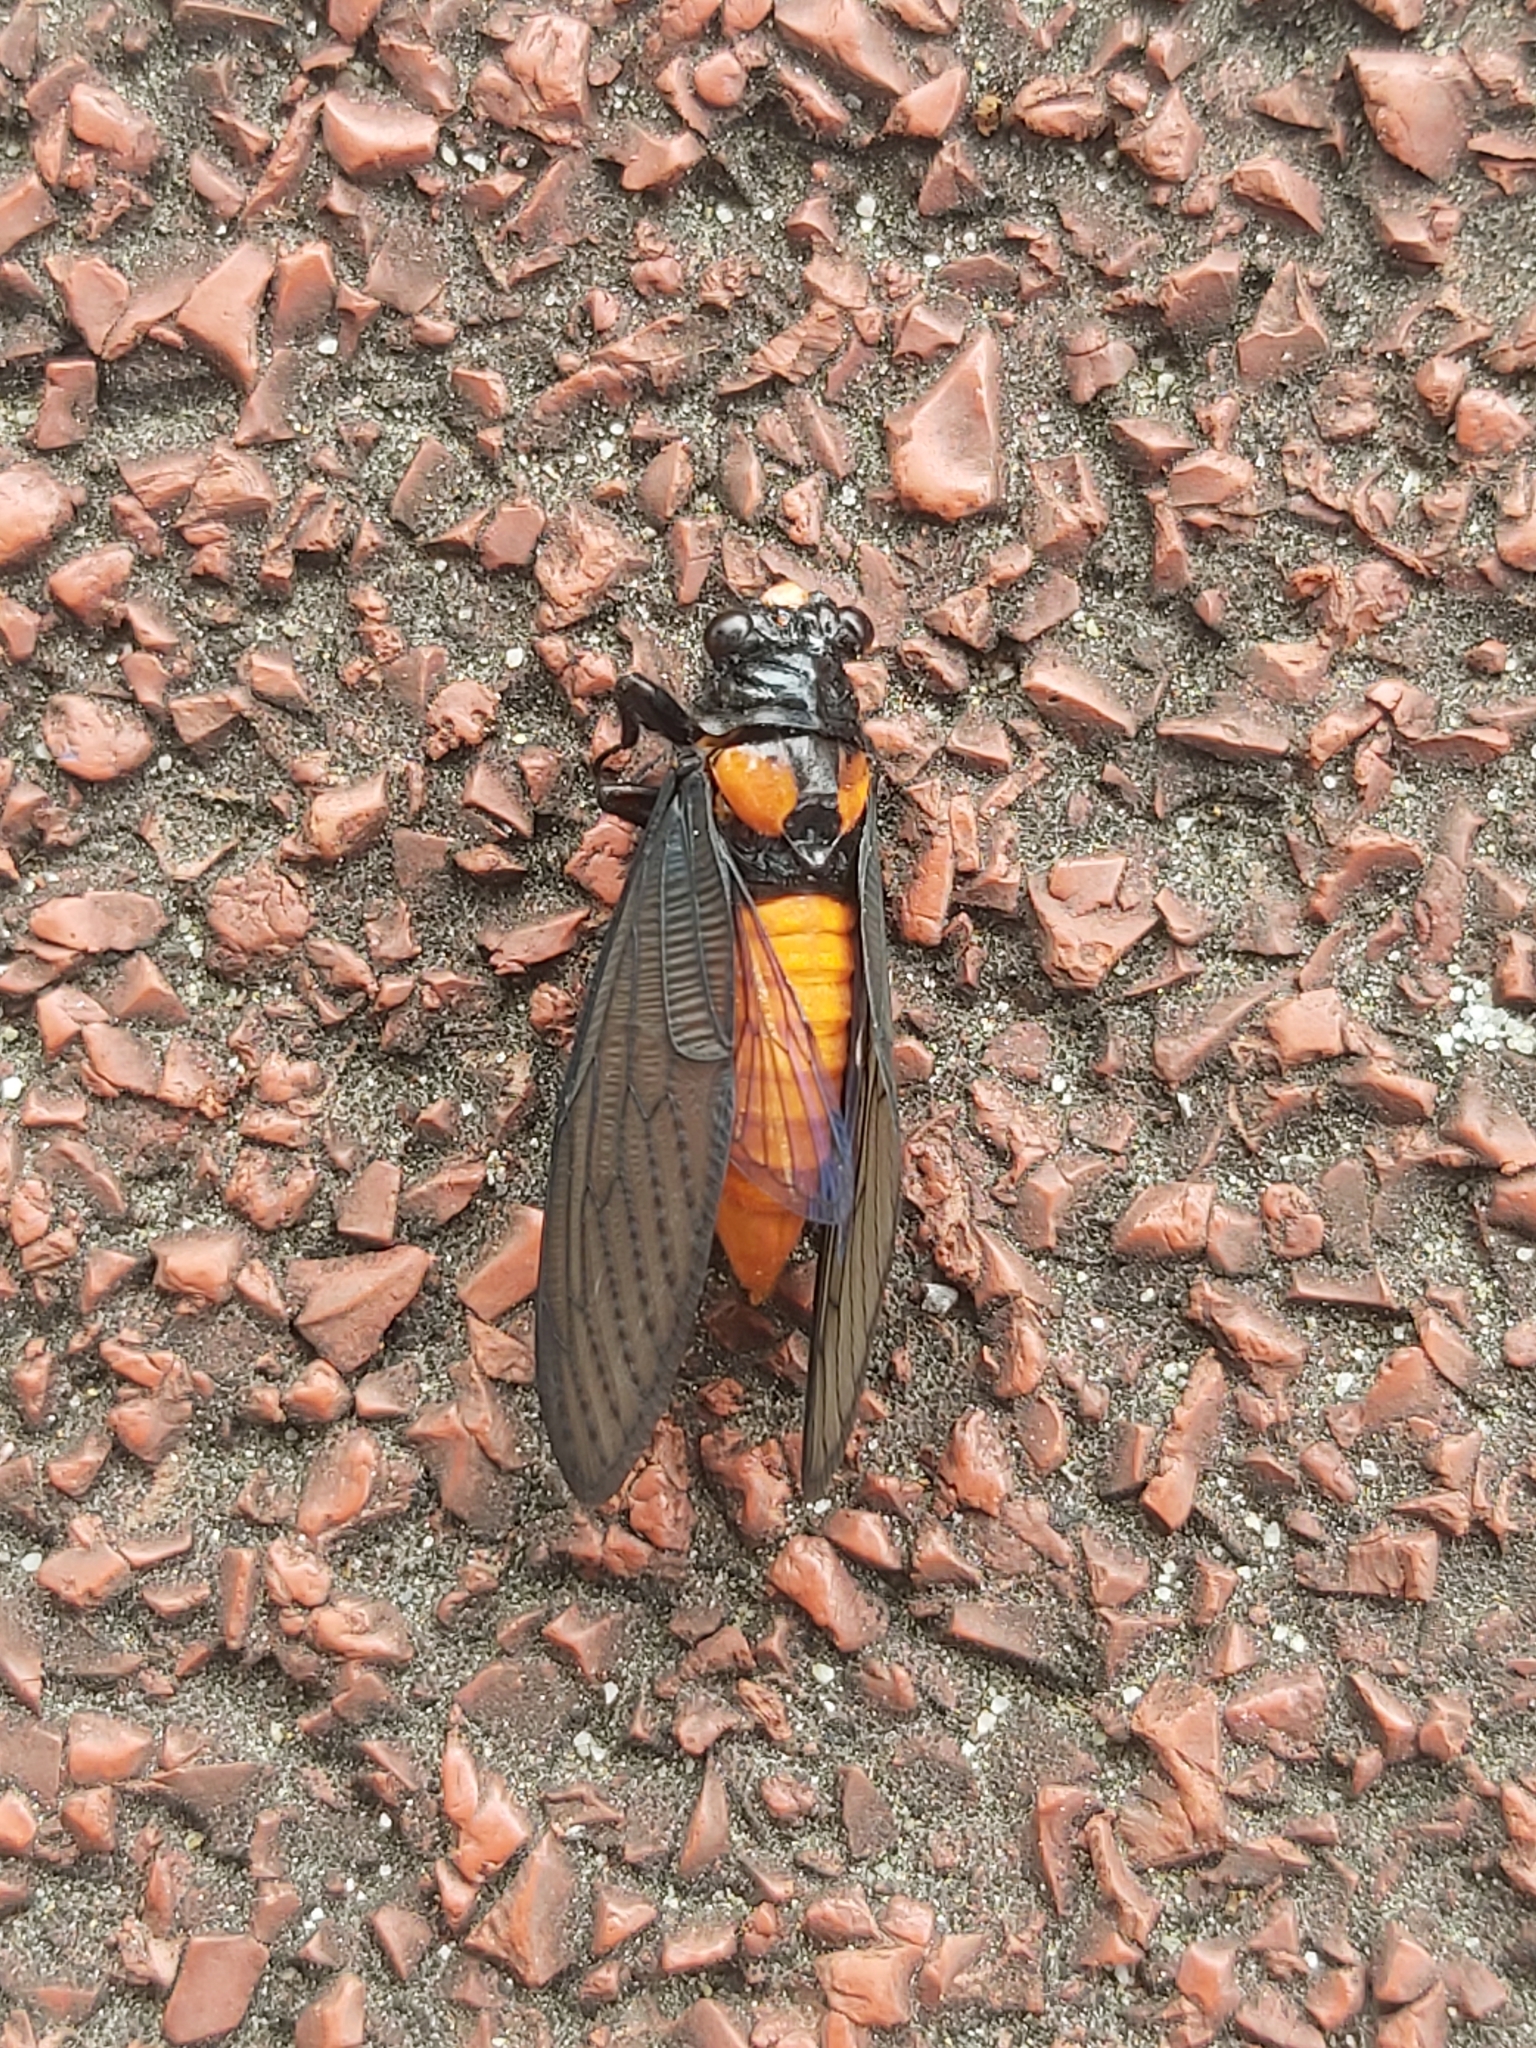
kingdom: Animalia
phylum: Arthropoda
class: Insecta
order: Hemiptera
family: Cicadidae
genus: Huechys
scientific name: Huechys sanguinea
